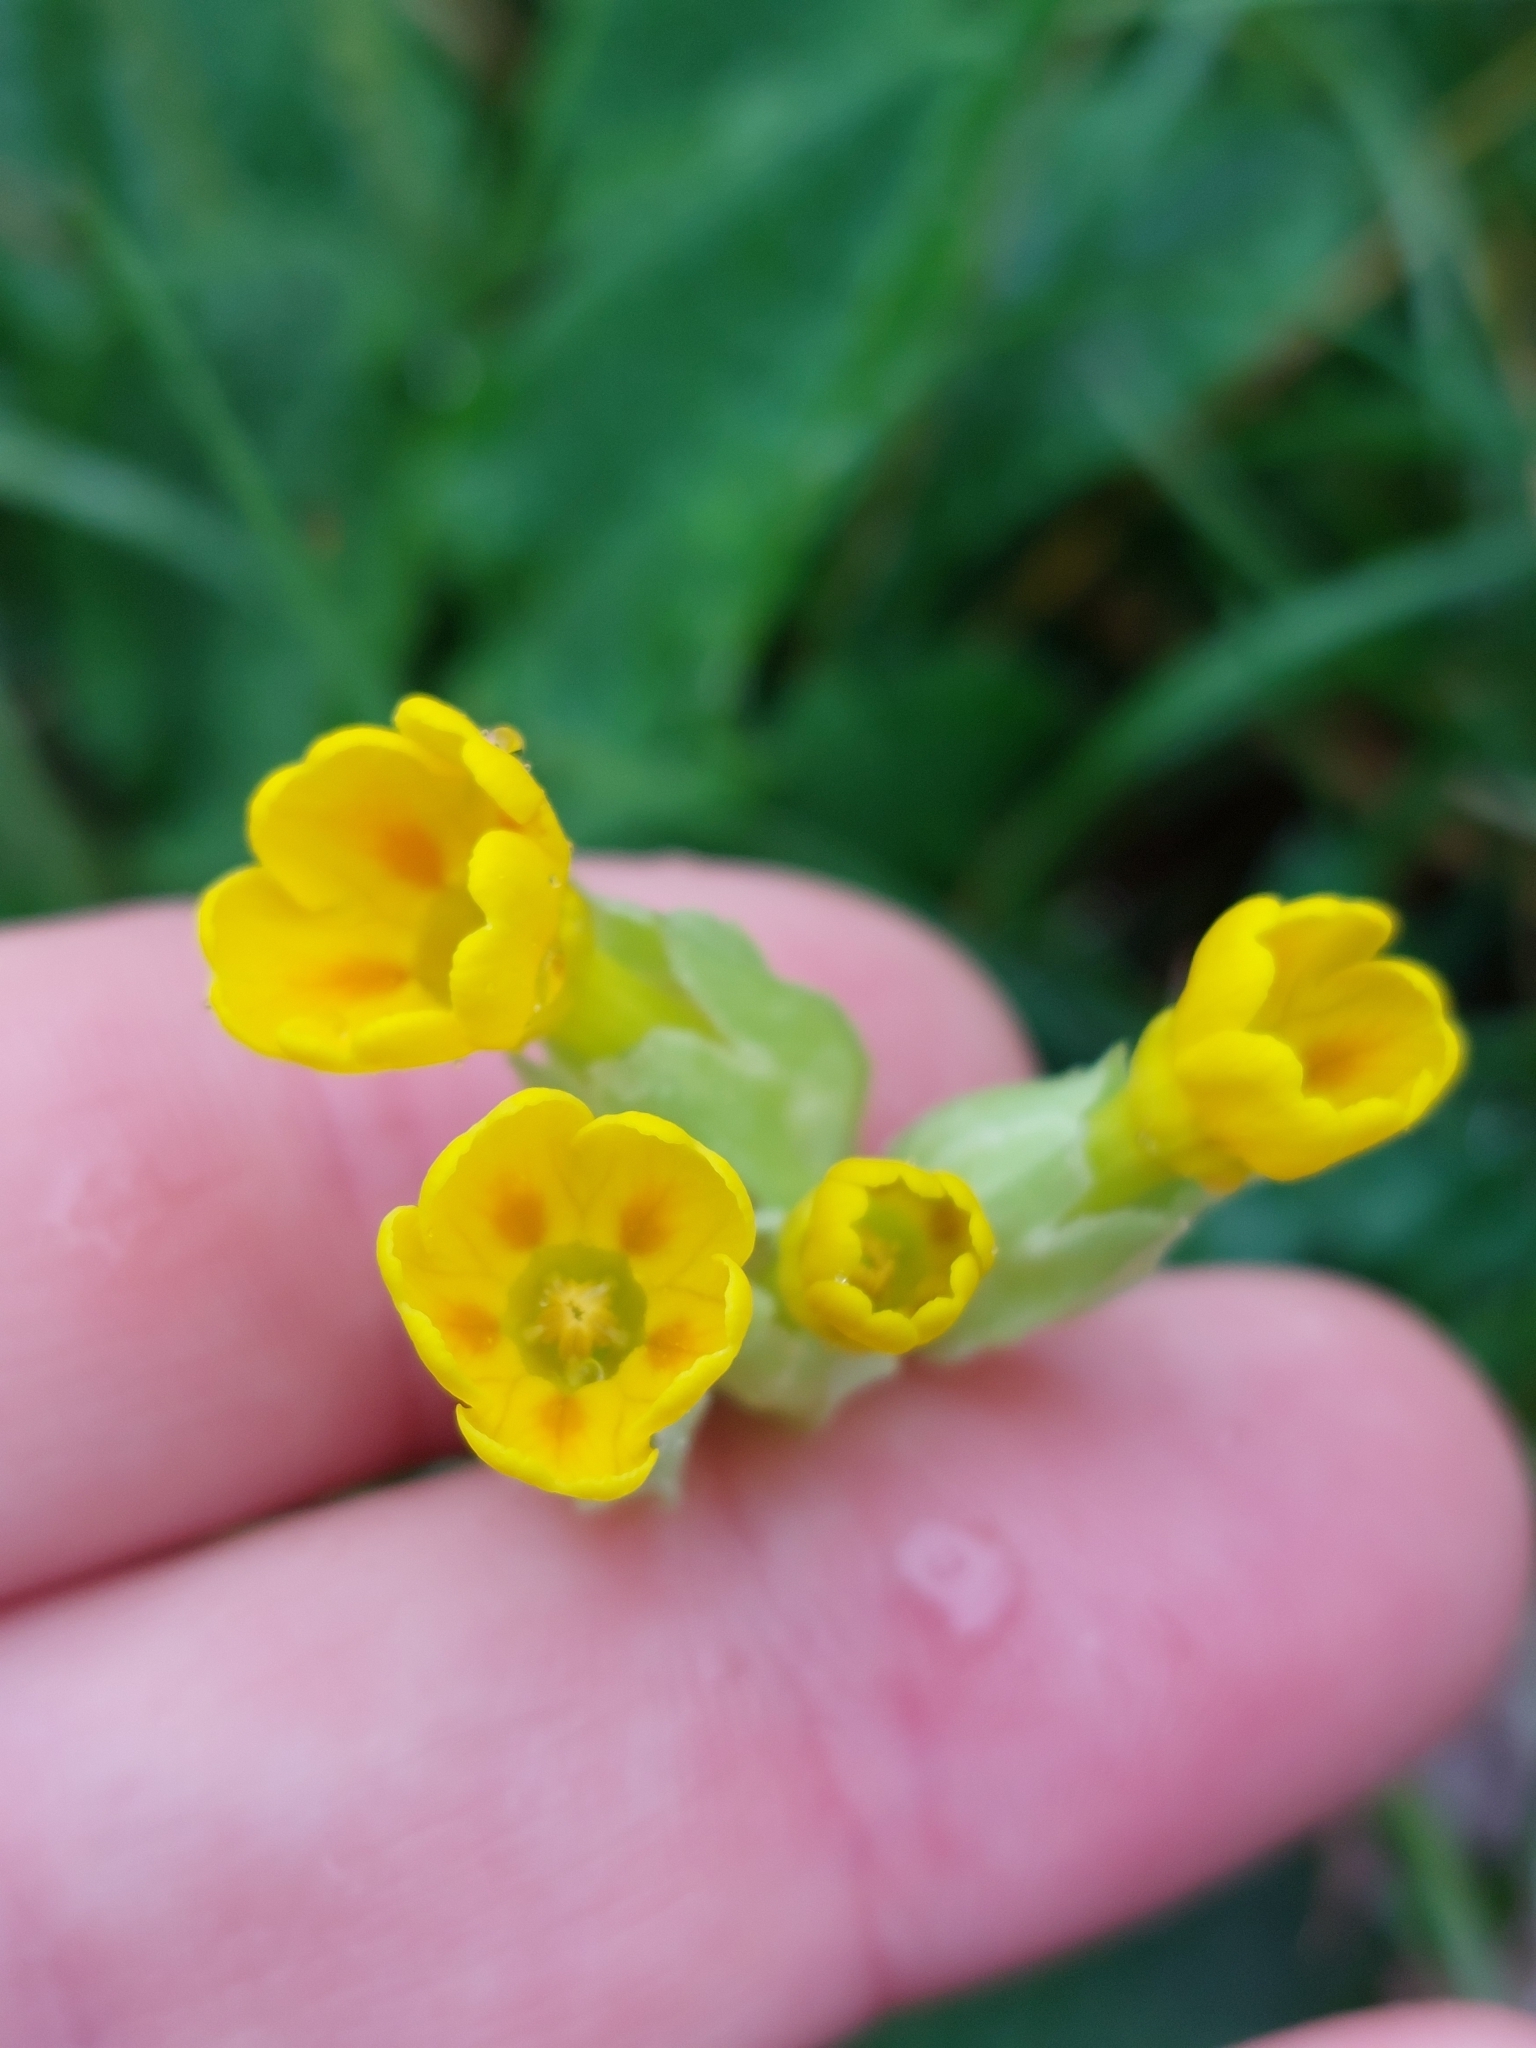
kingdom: Plantae
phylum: Tracheophyta
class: Magnoliopsida
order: Ericales
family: Primulaceae
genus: Primula
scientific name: Primula veris
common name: Cowslip
